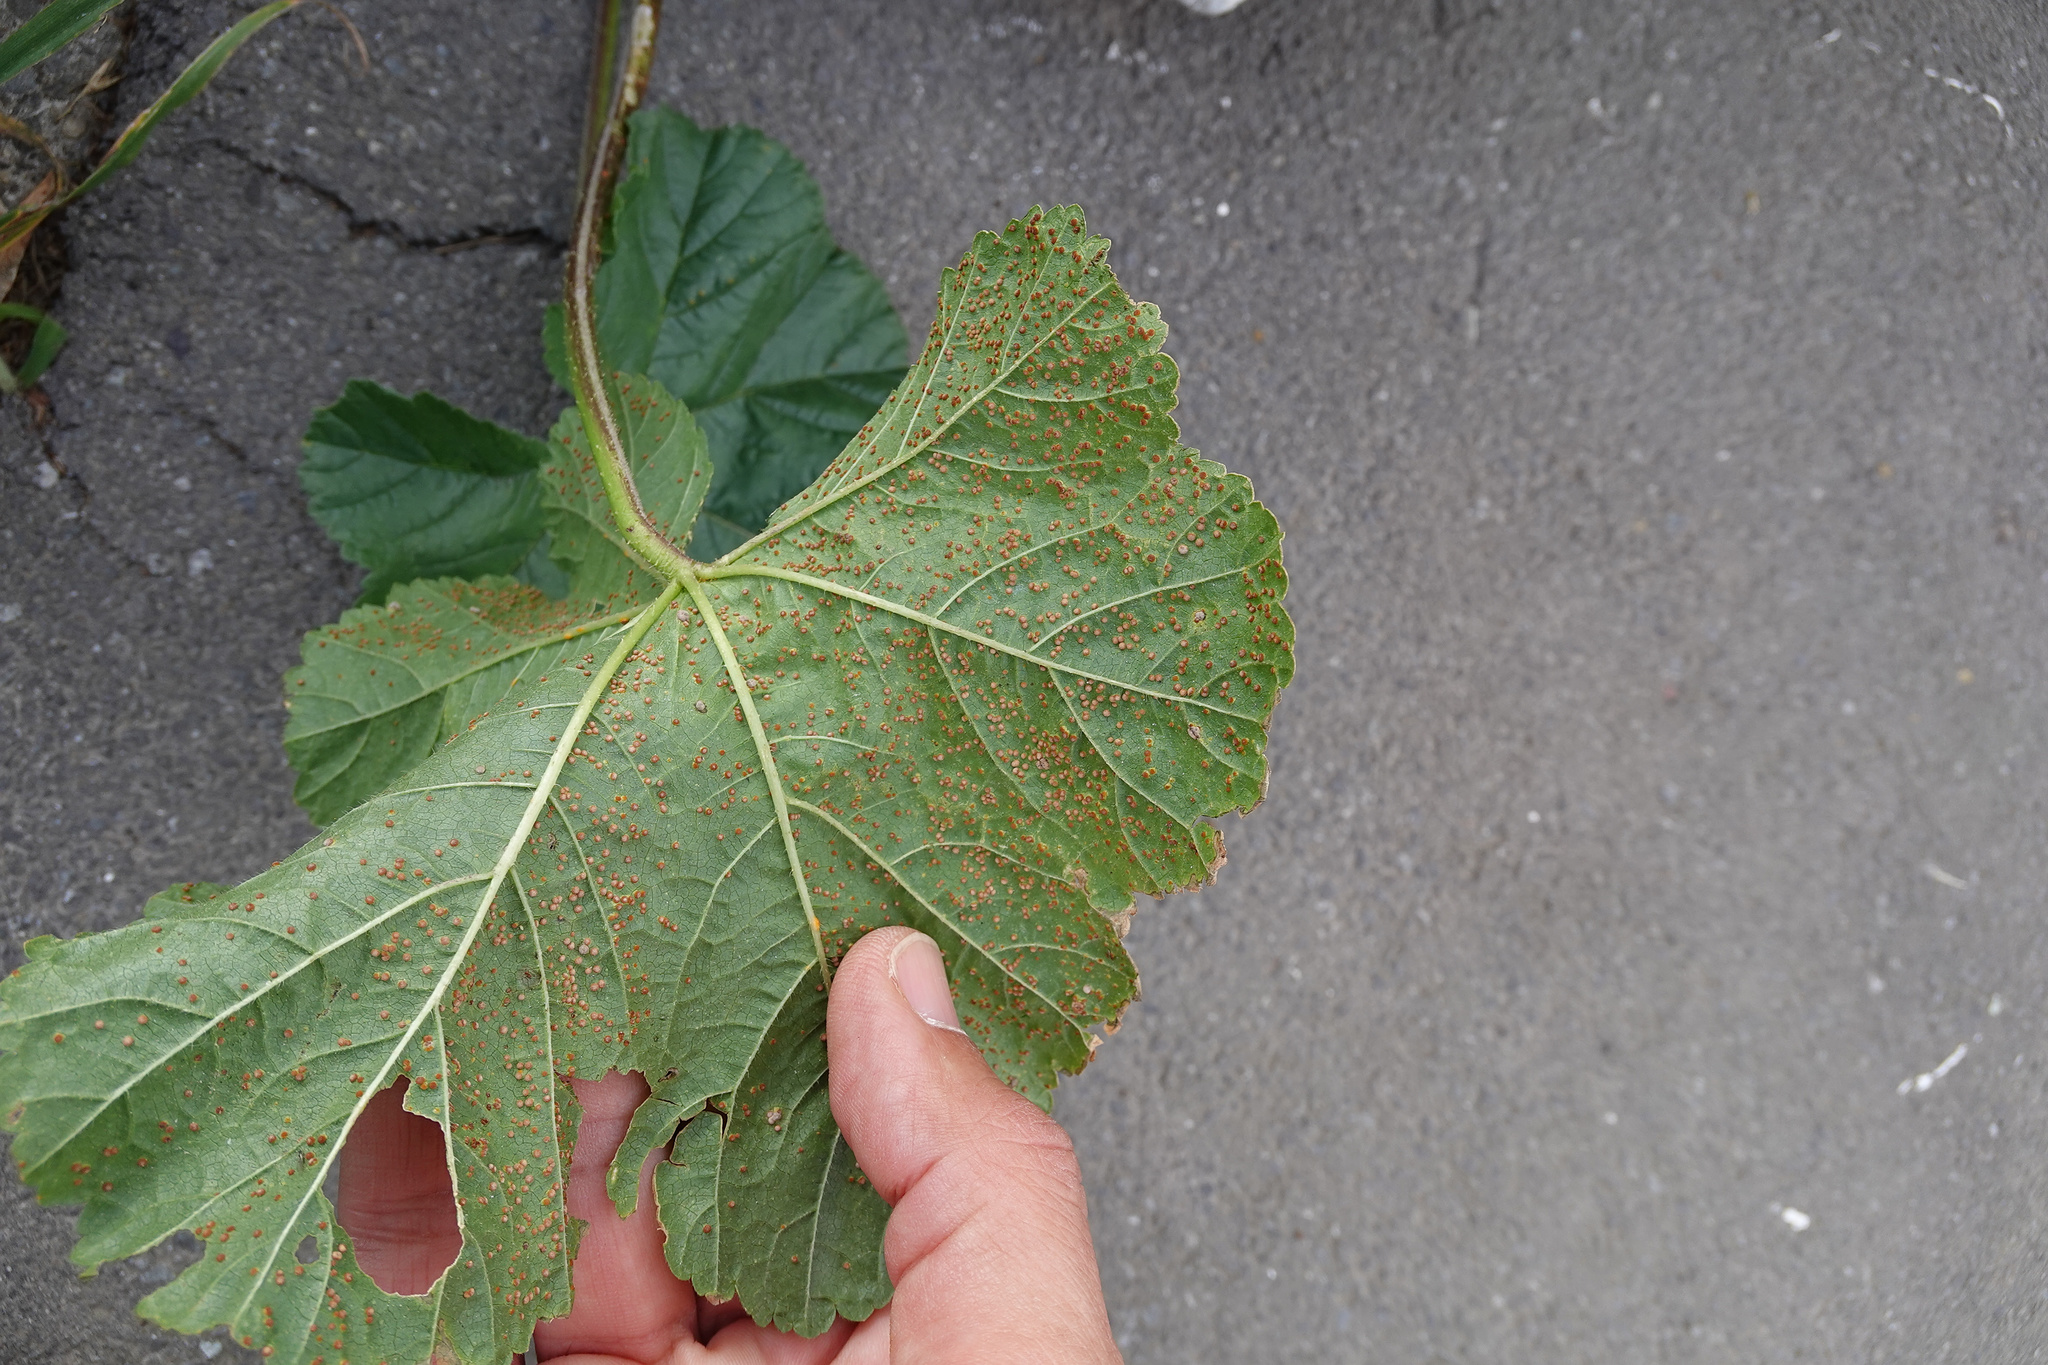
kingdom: Fungi
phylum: Basidiomycota
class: Pucciniomycetes
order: Pucciniales
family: Pucciniaceae
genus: Puccinia
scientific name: Puccinia malvacearum
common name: Hollyhock rust
